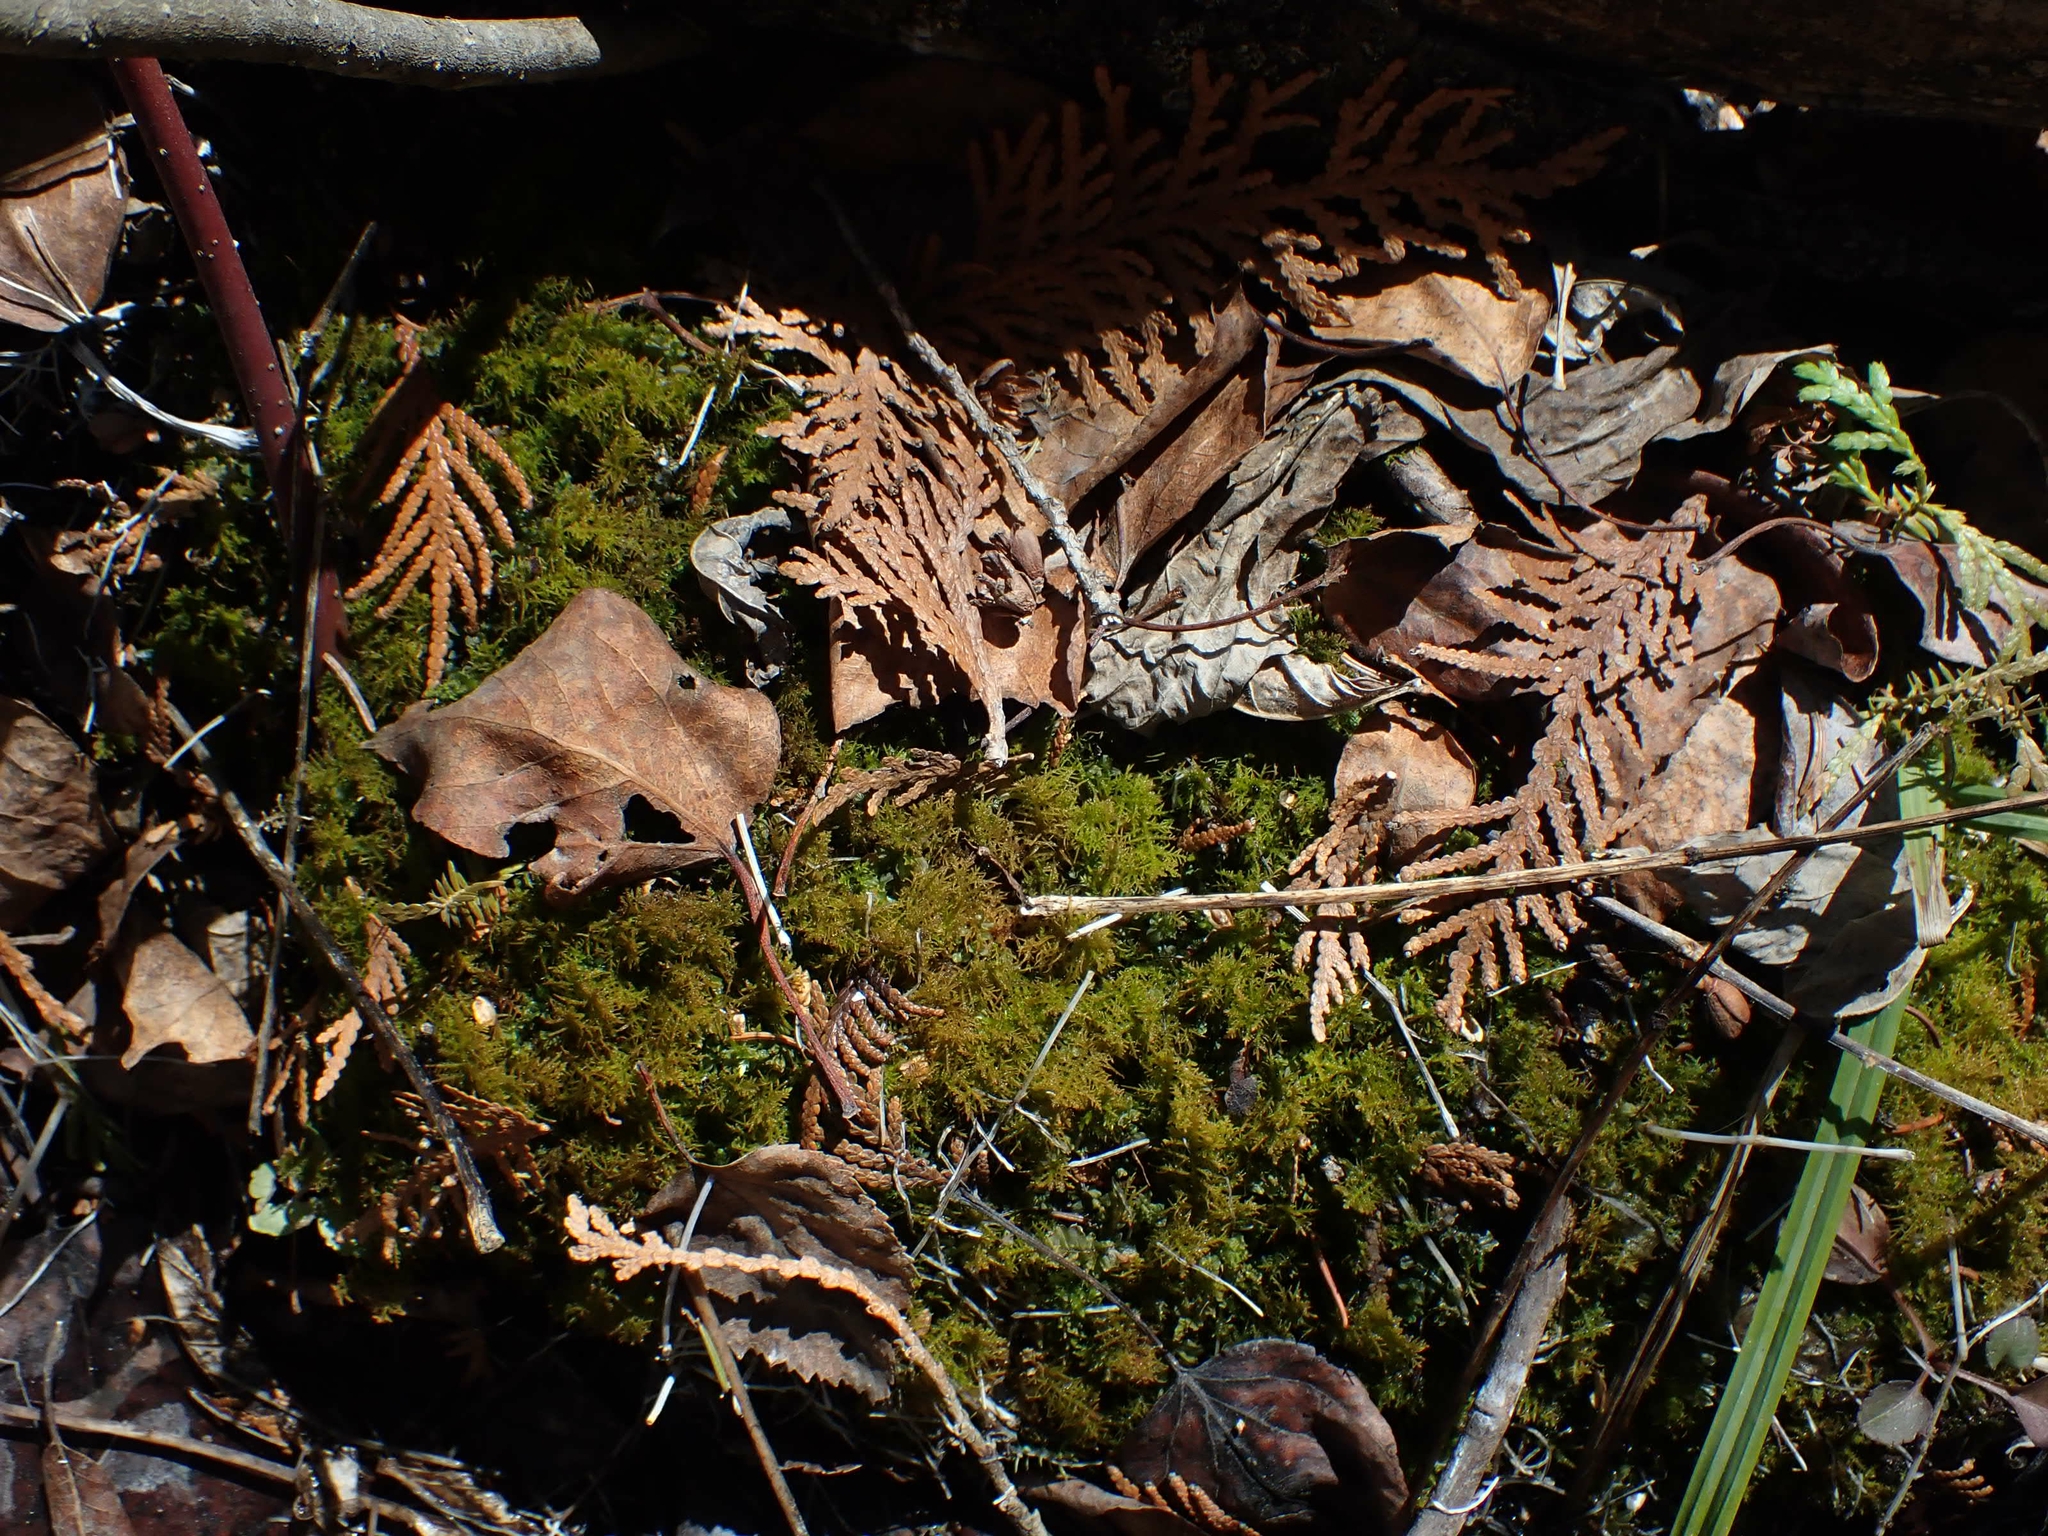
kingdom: Plantae
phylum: Bryophyta
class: Bryopsida
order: Hypnales
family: Thuidiaceae
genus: Abietinella
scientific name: Abietinella abietina
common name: Wiry fern moss
